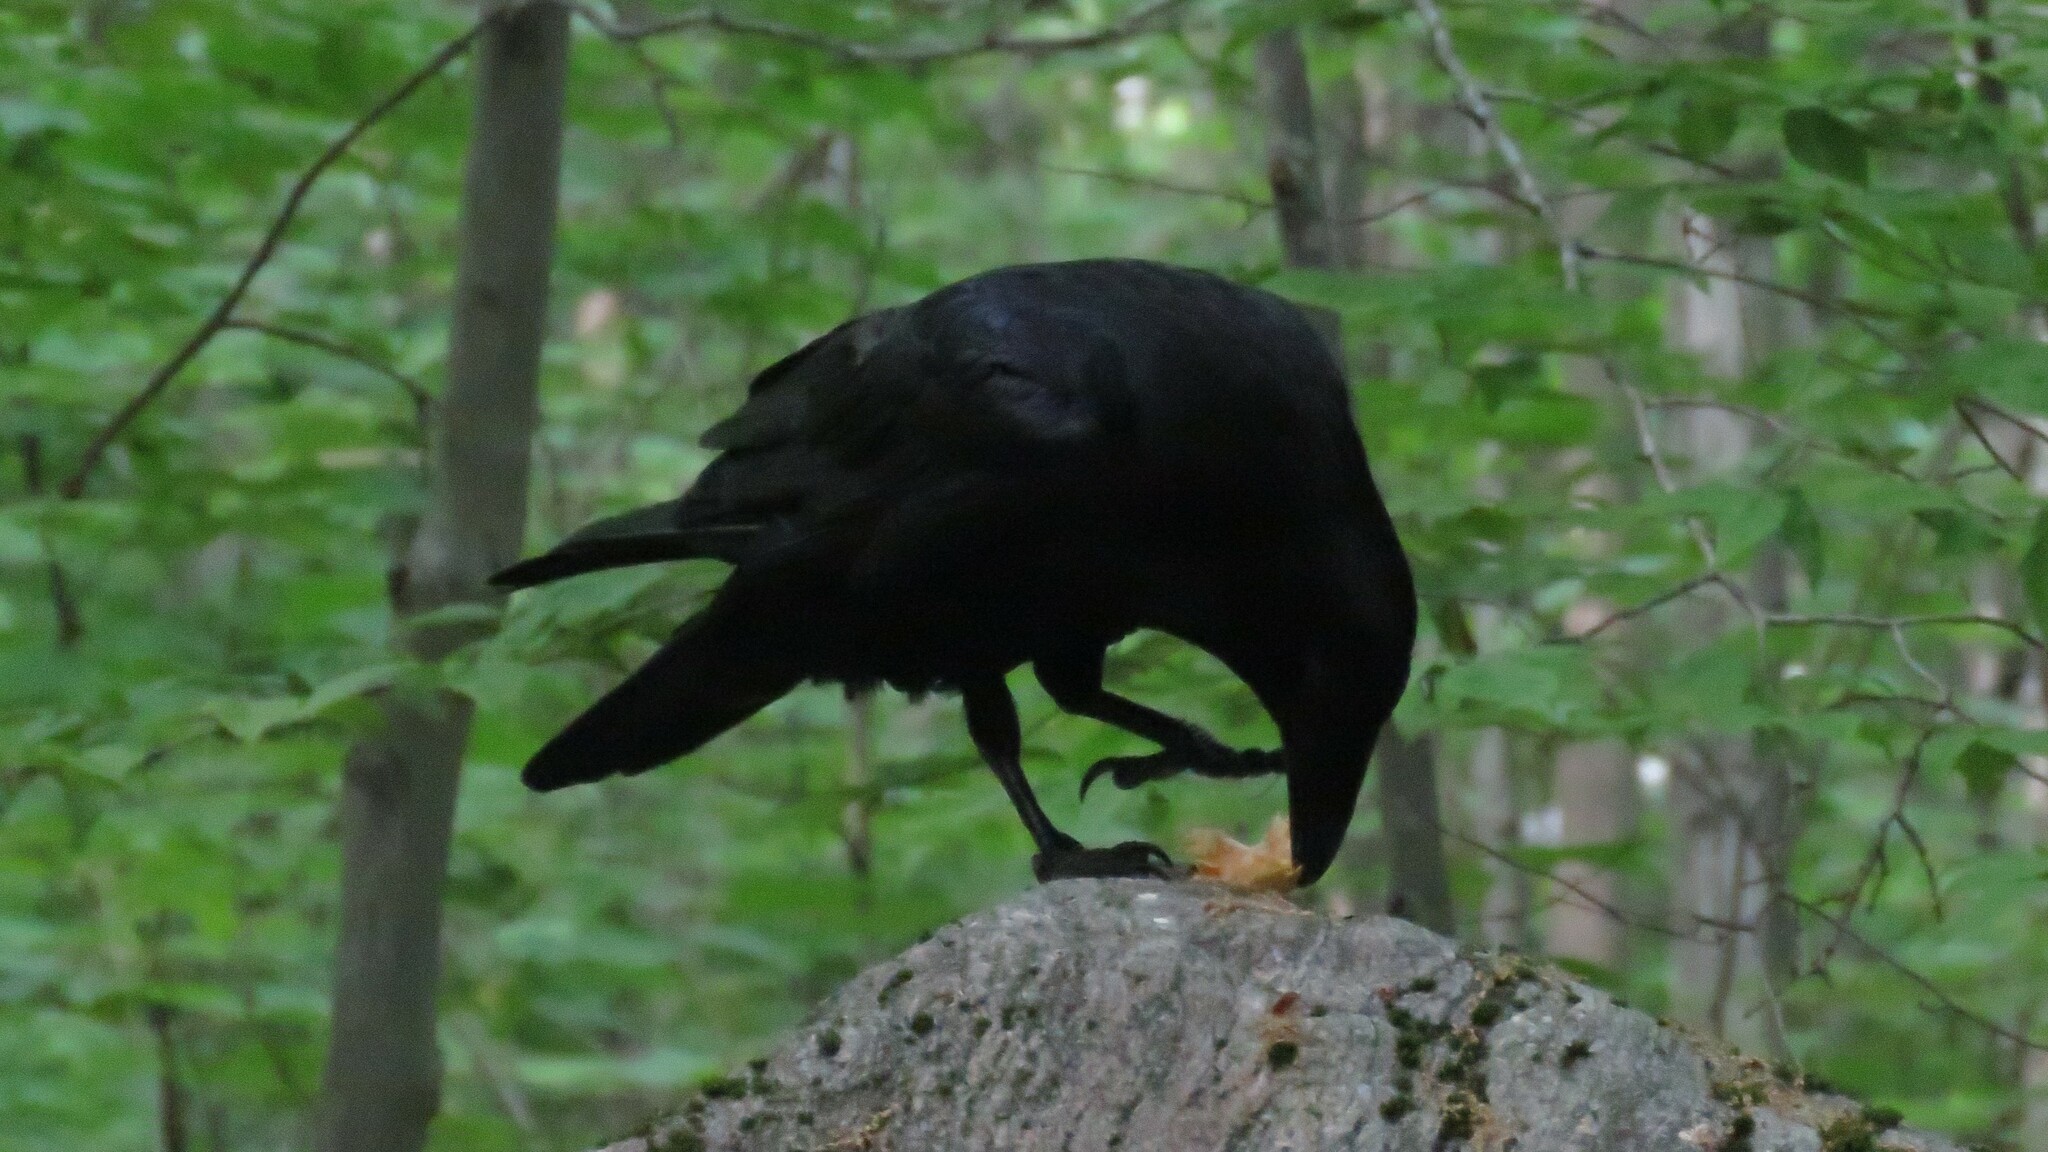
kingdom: Animalia
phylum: Chordata
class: Aves
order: Passeriformes
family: Corvidae
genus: Corvus
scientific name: Corvus corax
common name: Common raven
